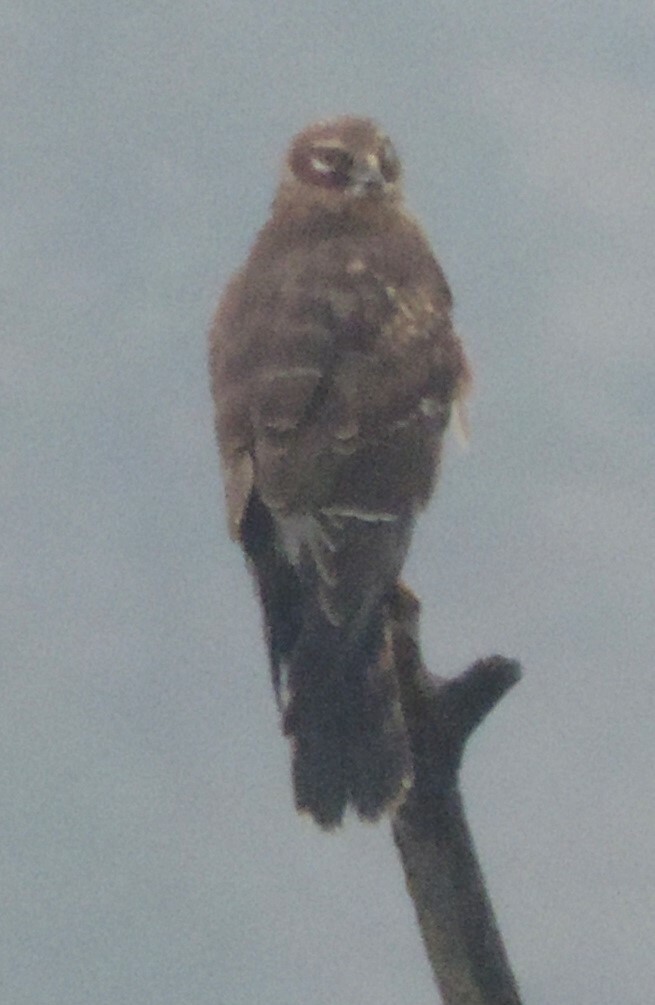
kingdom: Animalia
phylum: Chordata
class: Aves
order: Accipitriformes
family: Accipitridae
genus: Circus
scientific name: Circus cyaneus
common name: Hen harrier
